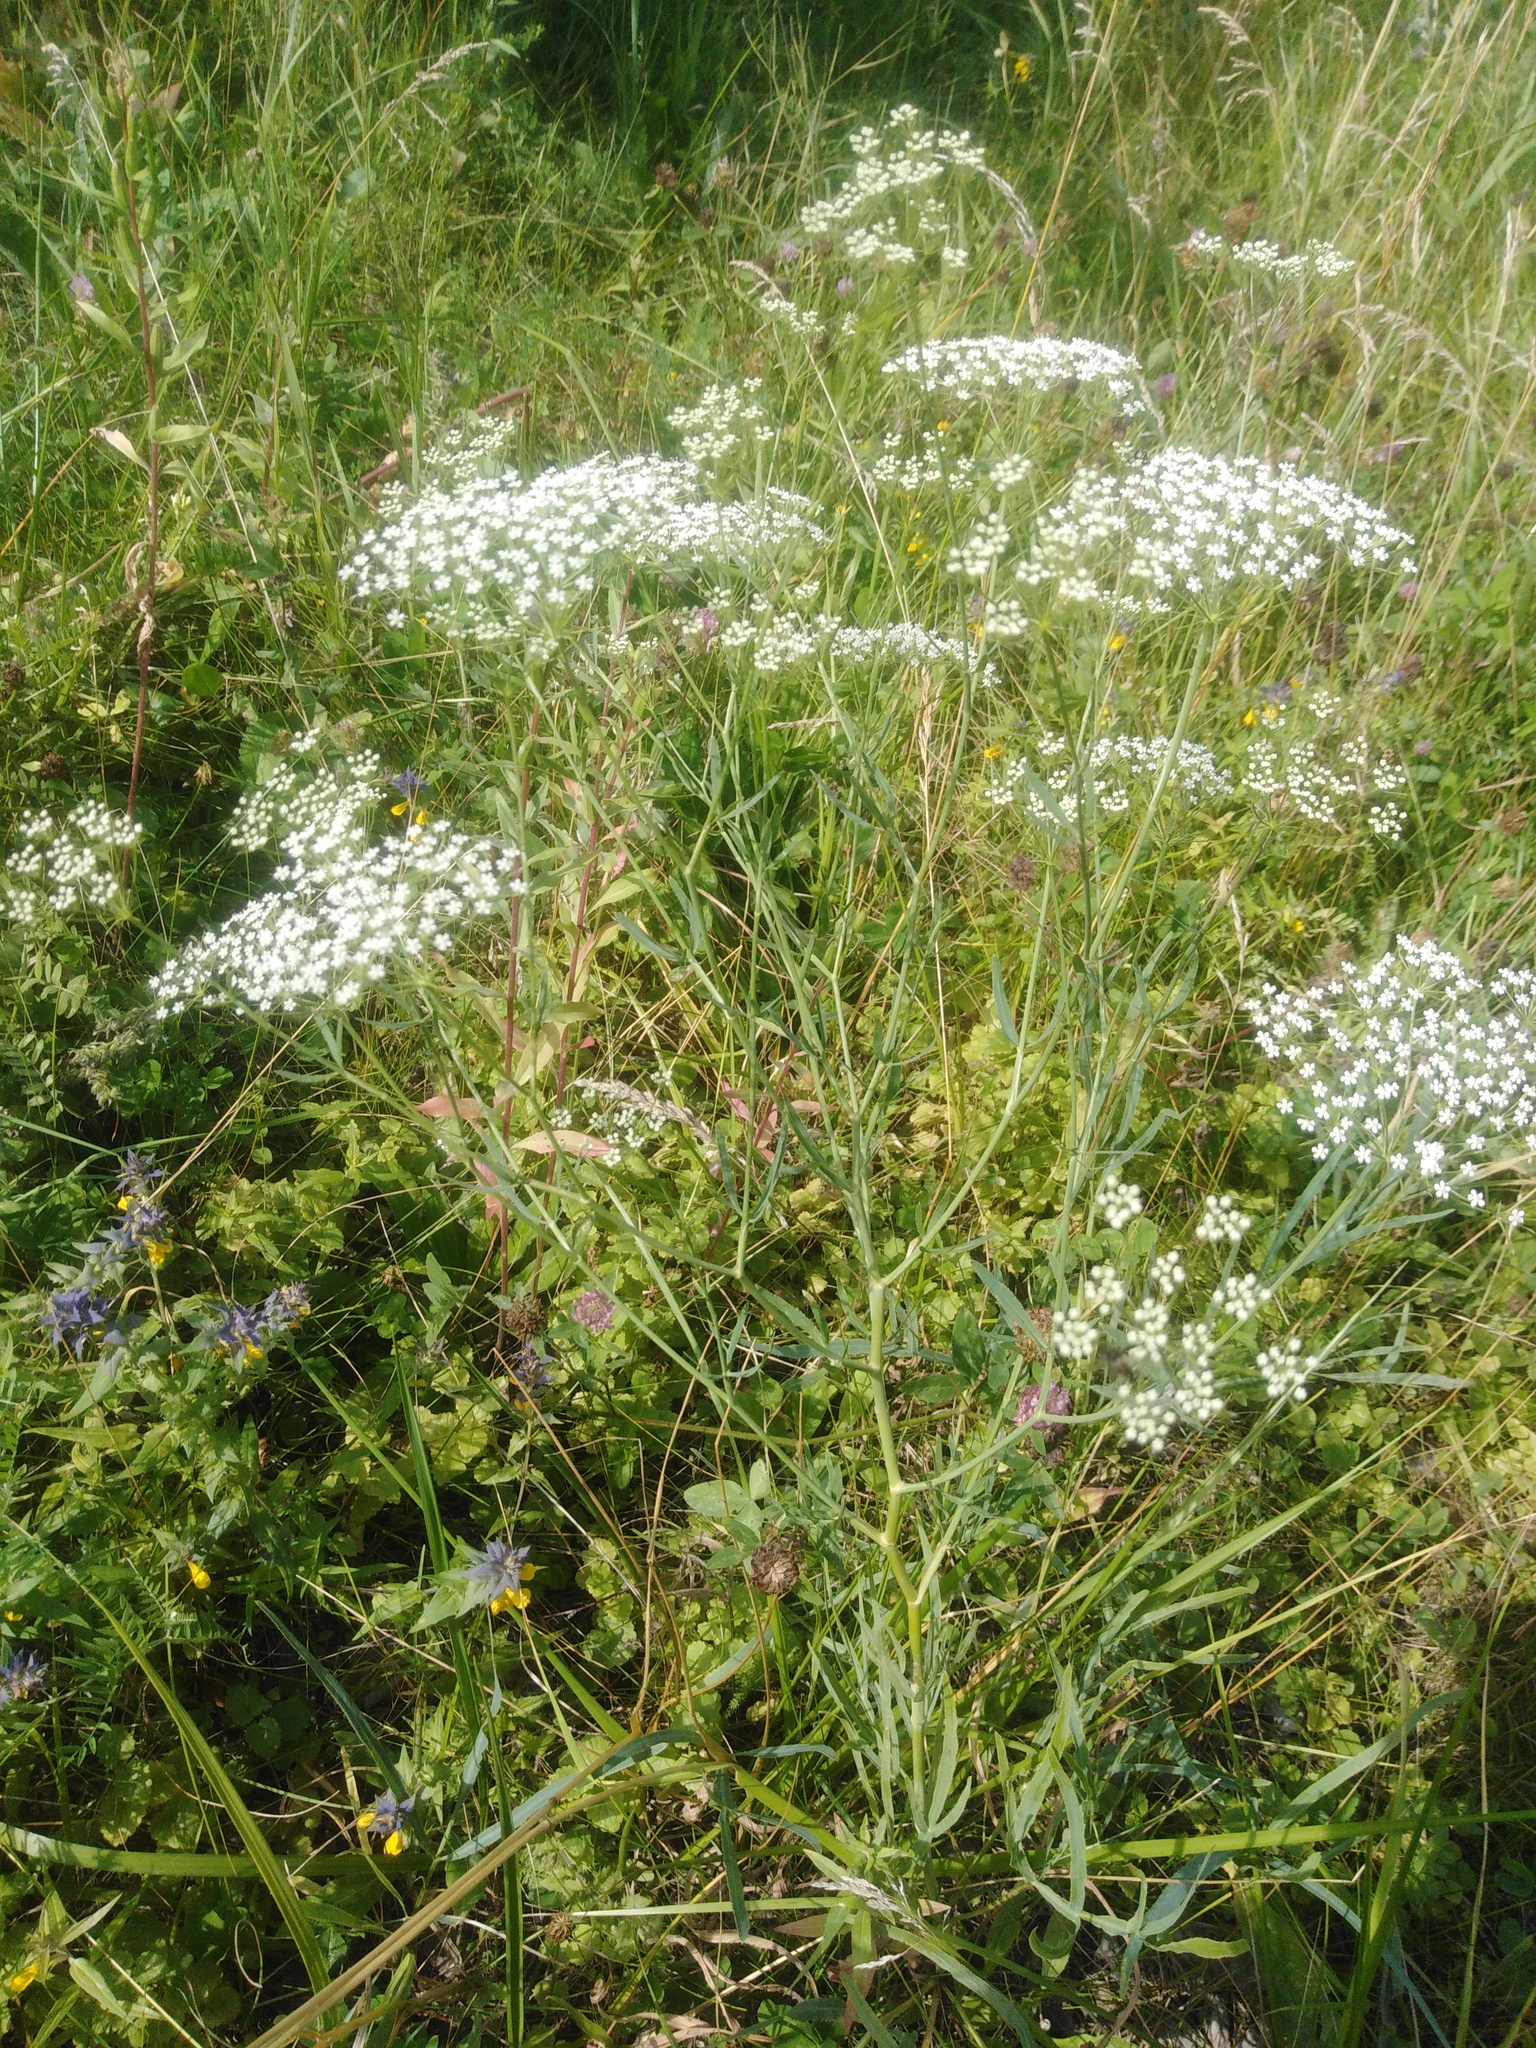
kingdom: Plantae
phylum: Tracheophyta
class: Magnoliopsida
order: Apiales
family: Apiaceae
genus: Falcaria
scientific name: Falcaria vulgaris
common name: Longleaf
